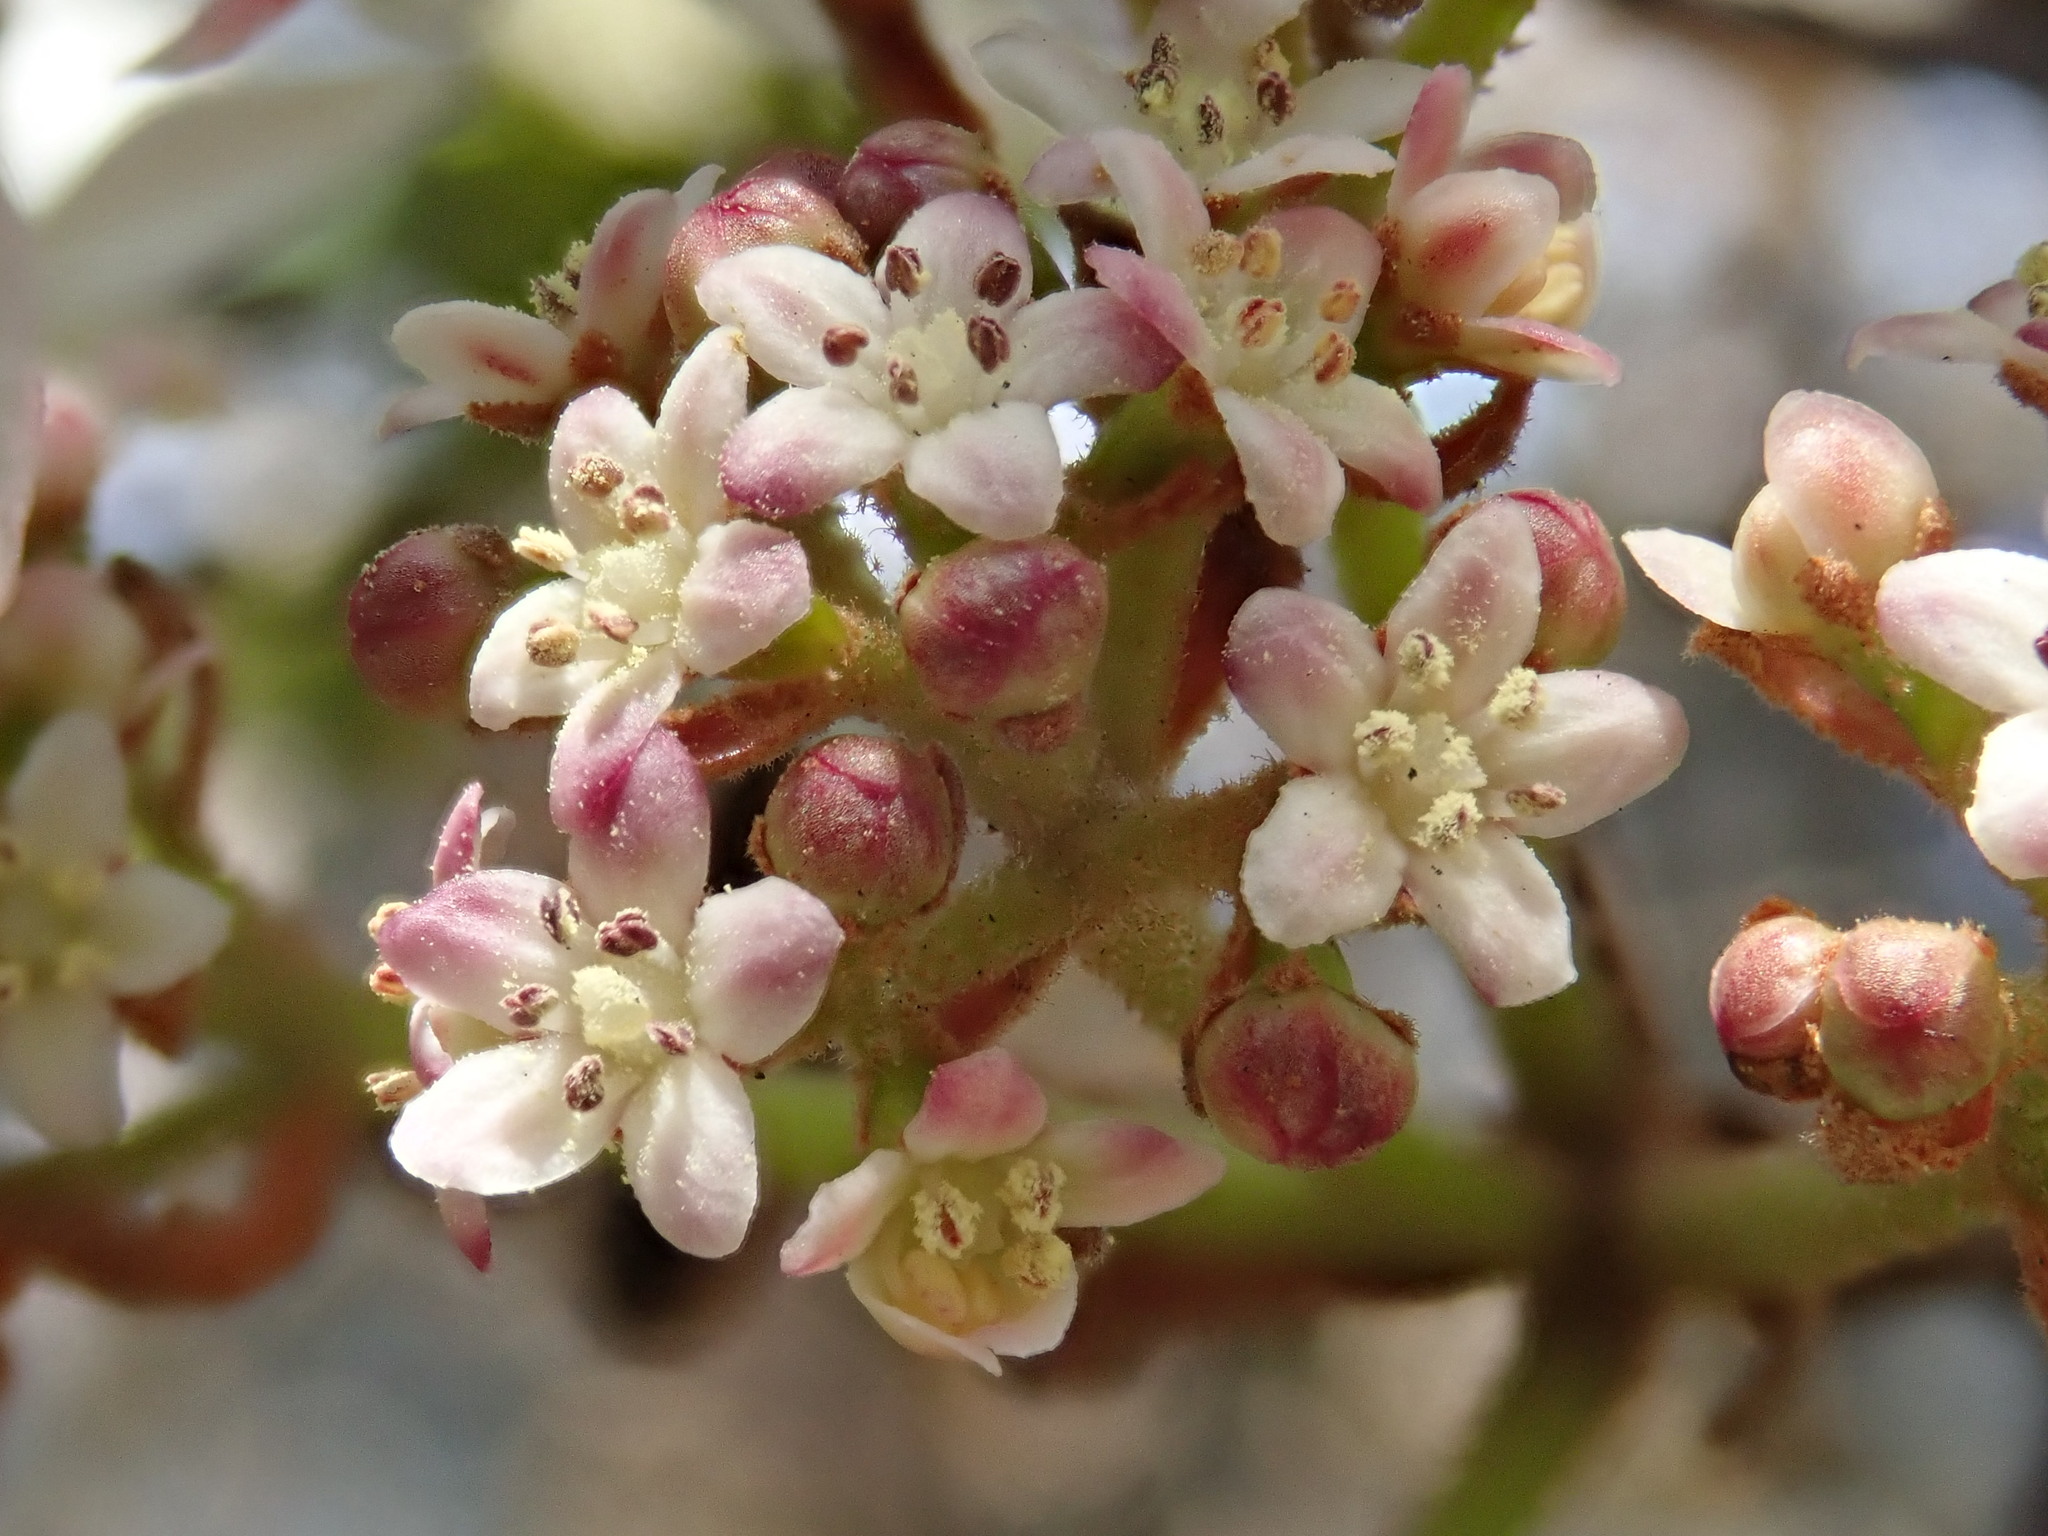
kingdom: Plantae
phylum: Tracheophyta
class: Magnoliopsida
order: Dipsacales
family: Viburnaceae
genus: Viburnum
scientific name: Viburnum furcatum
